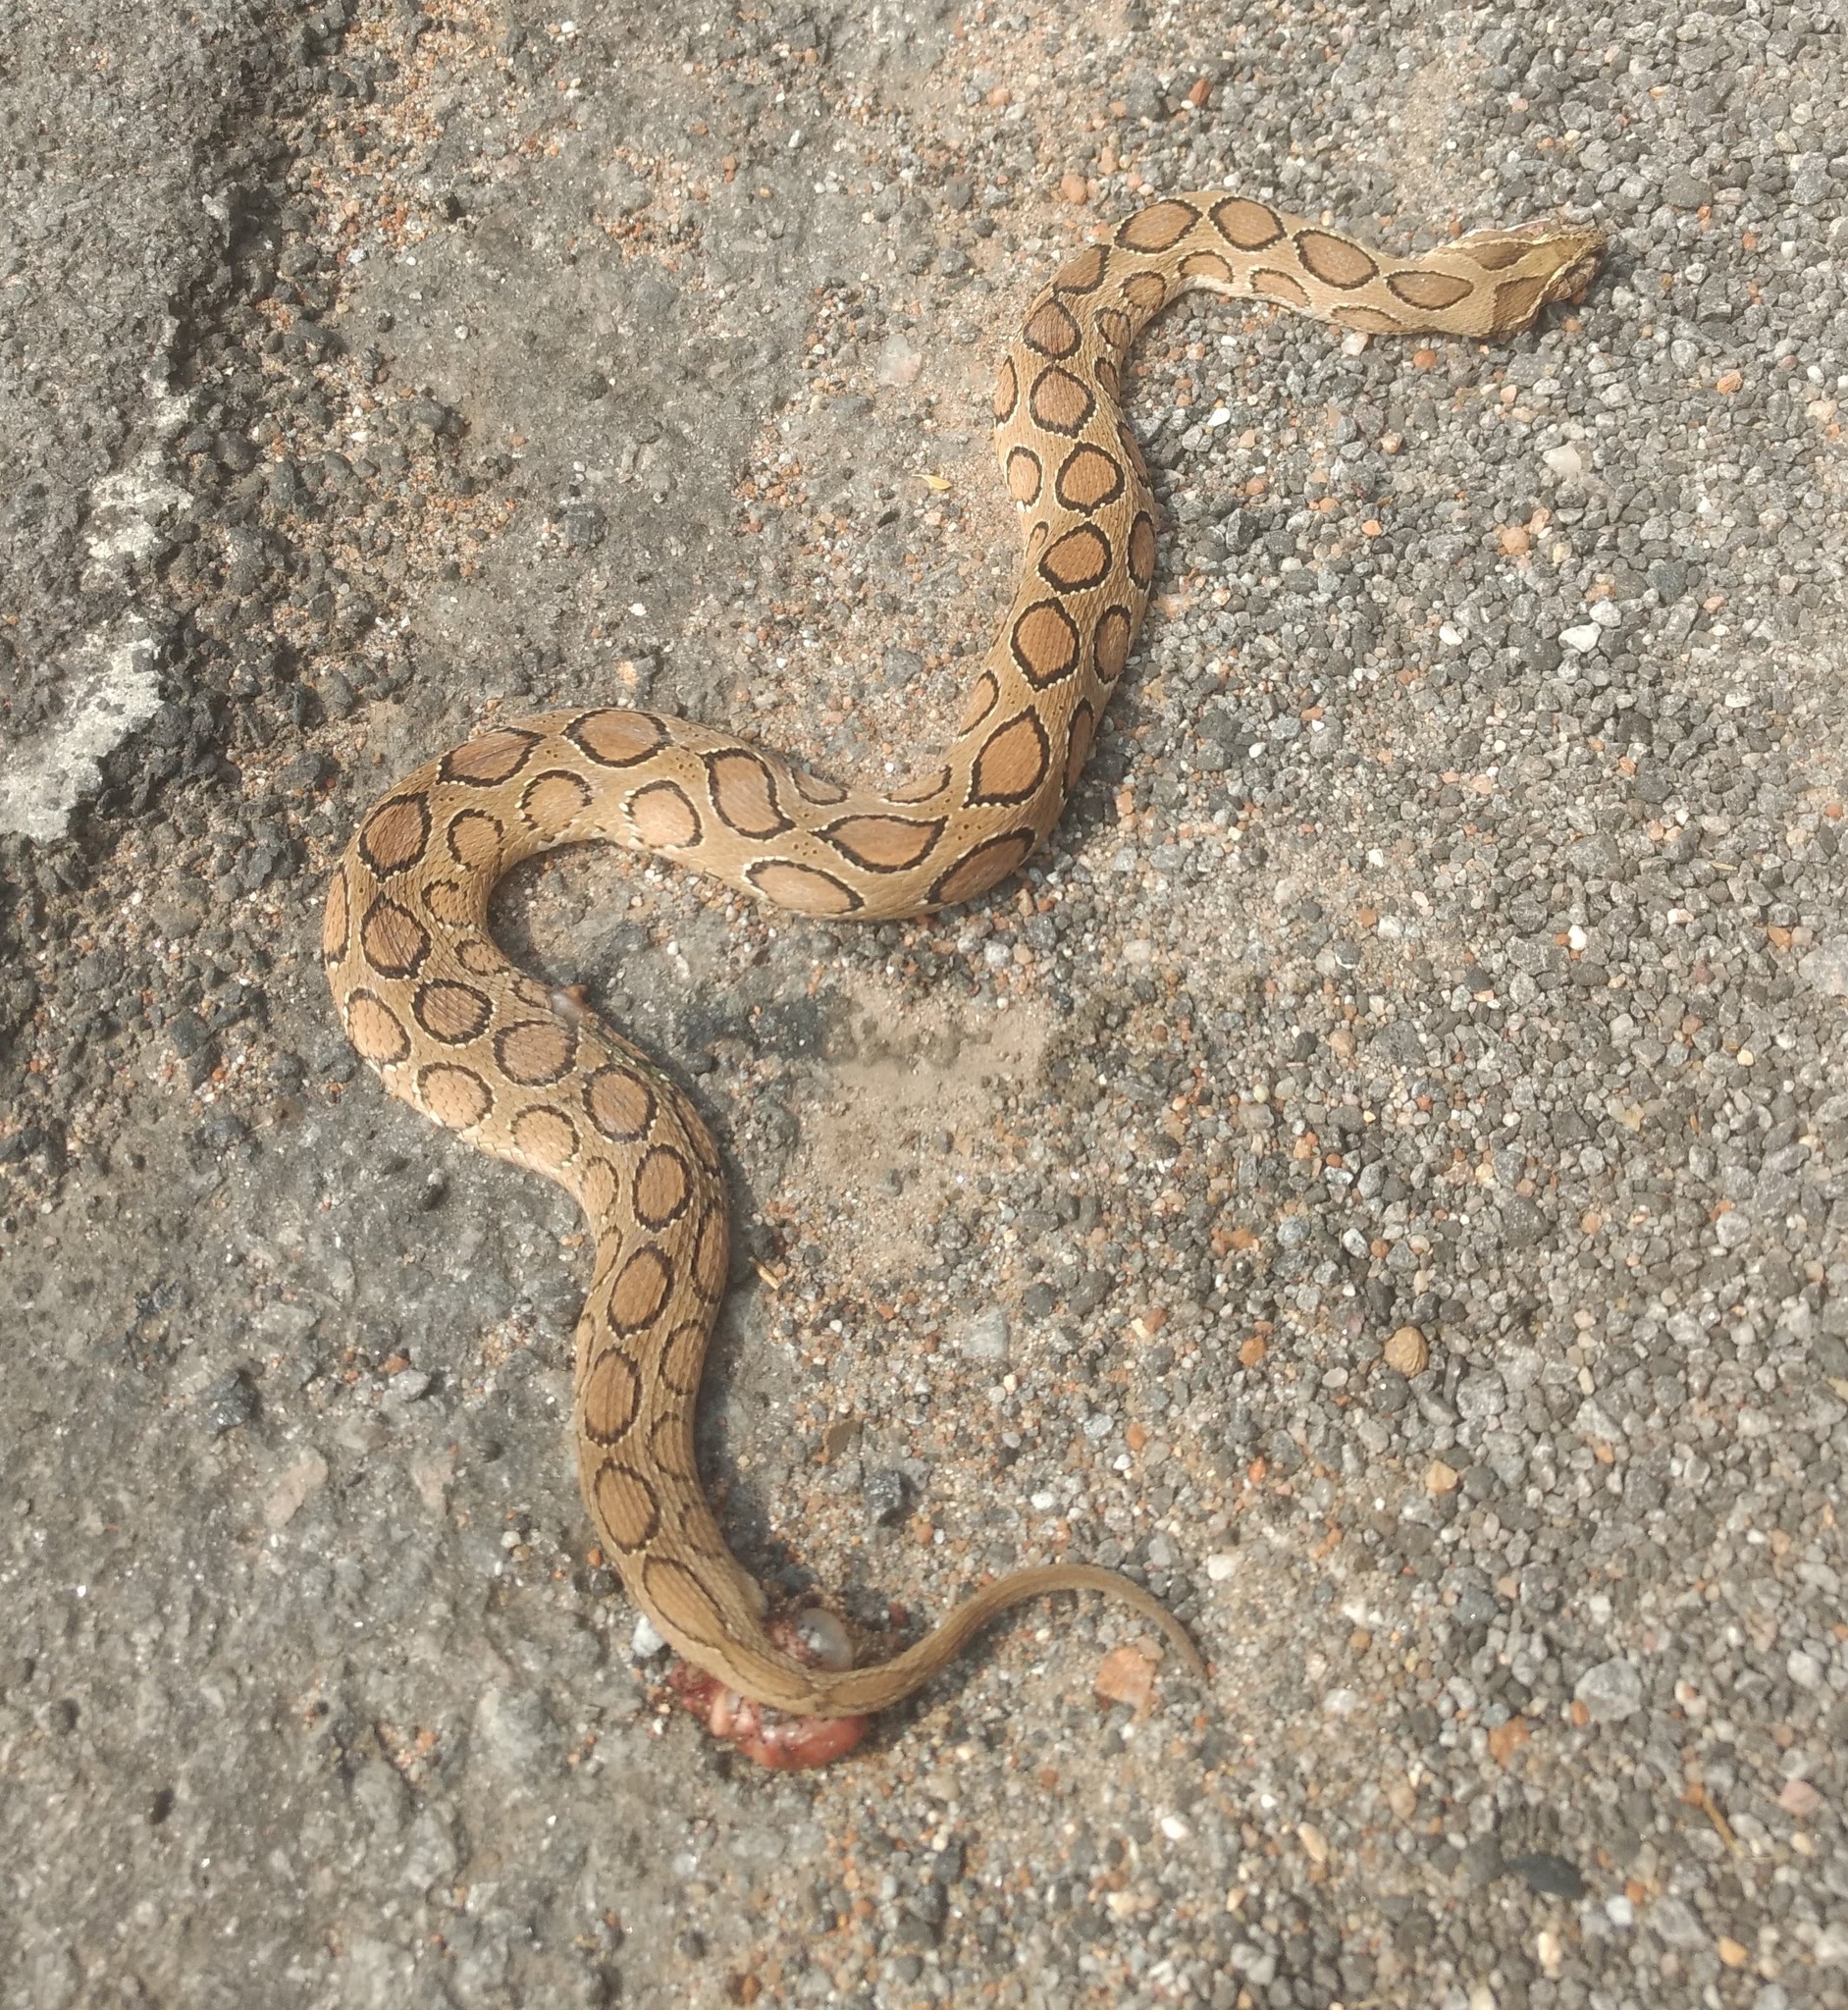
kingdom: Animalia
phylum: Chordata
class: Squamata
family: Viperidae
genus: Daboia
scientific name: Daboia russelii
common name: Western russel’s viper
